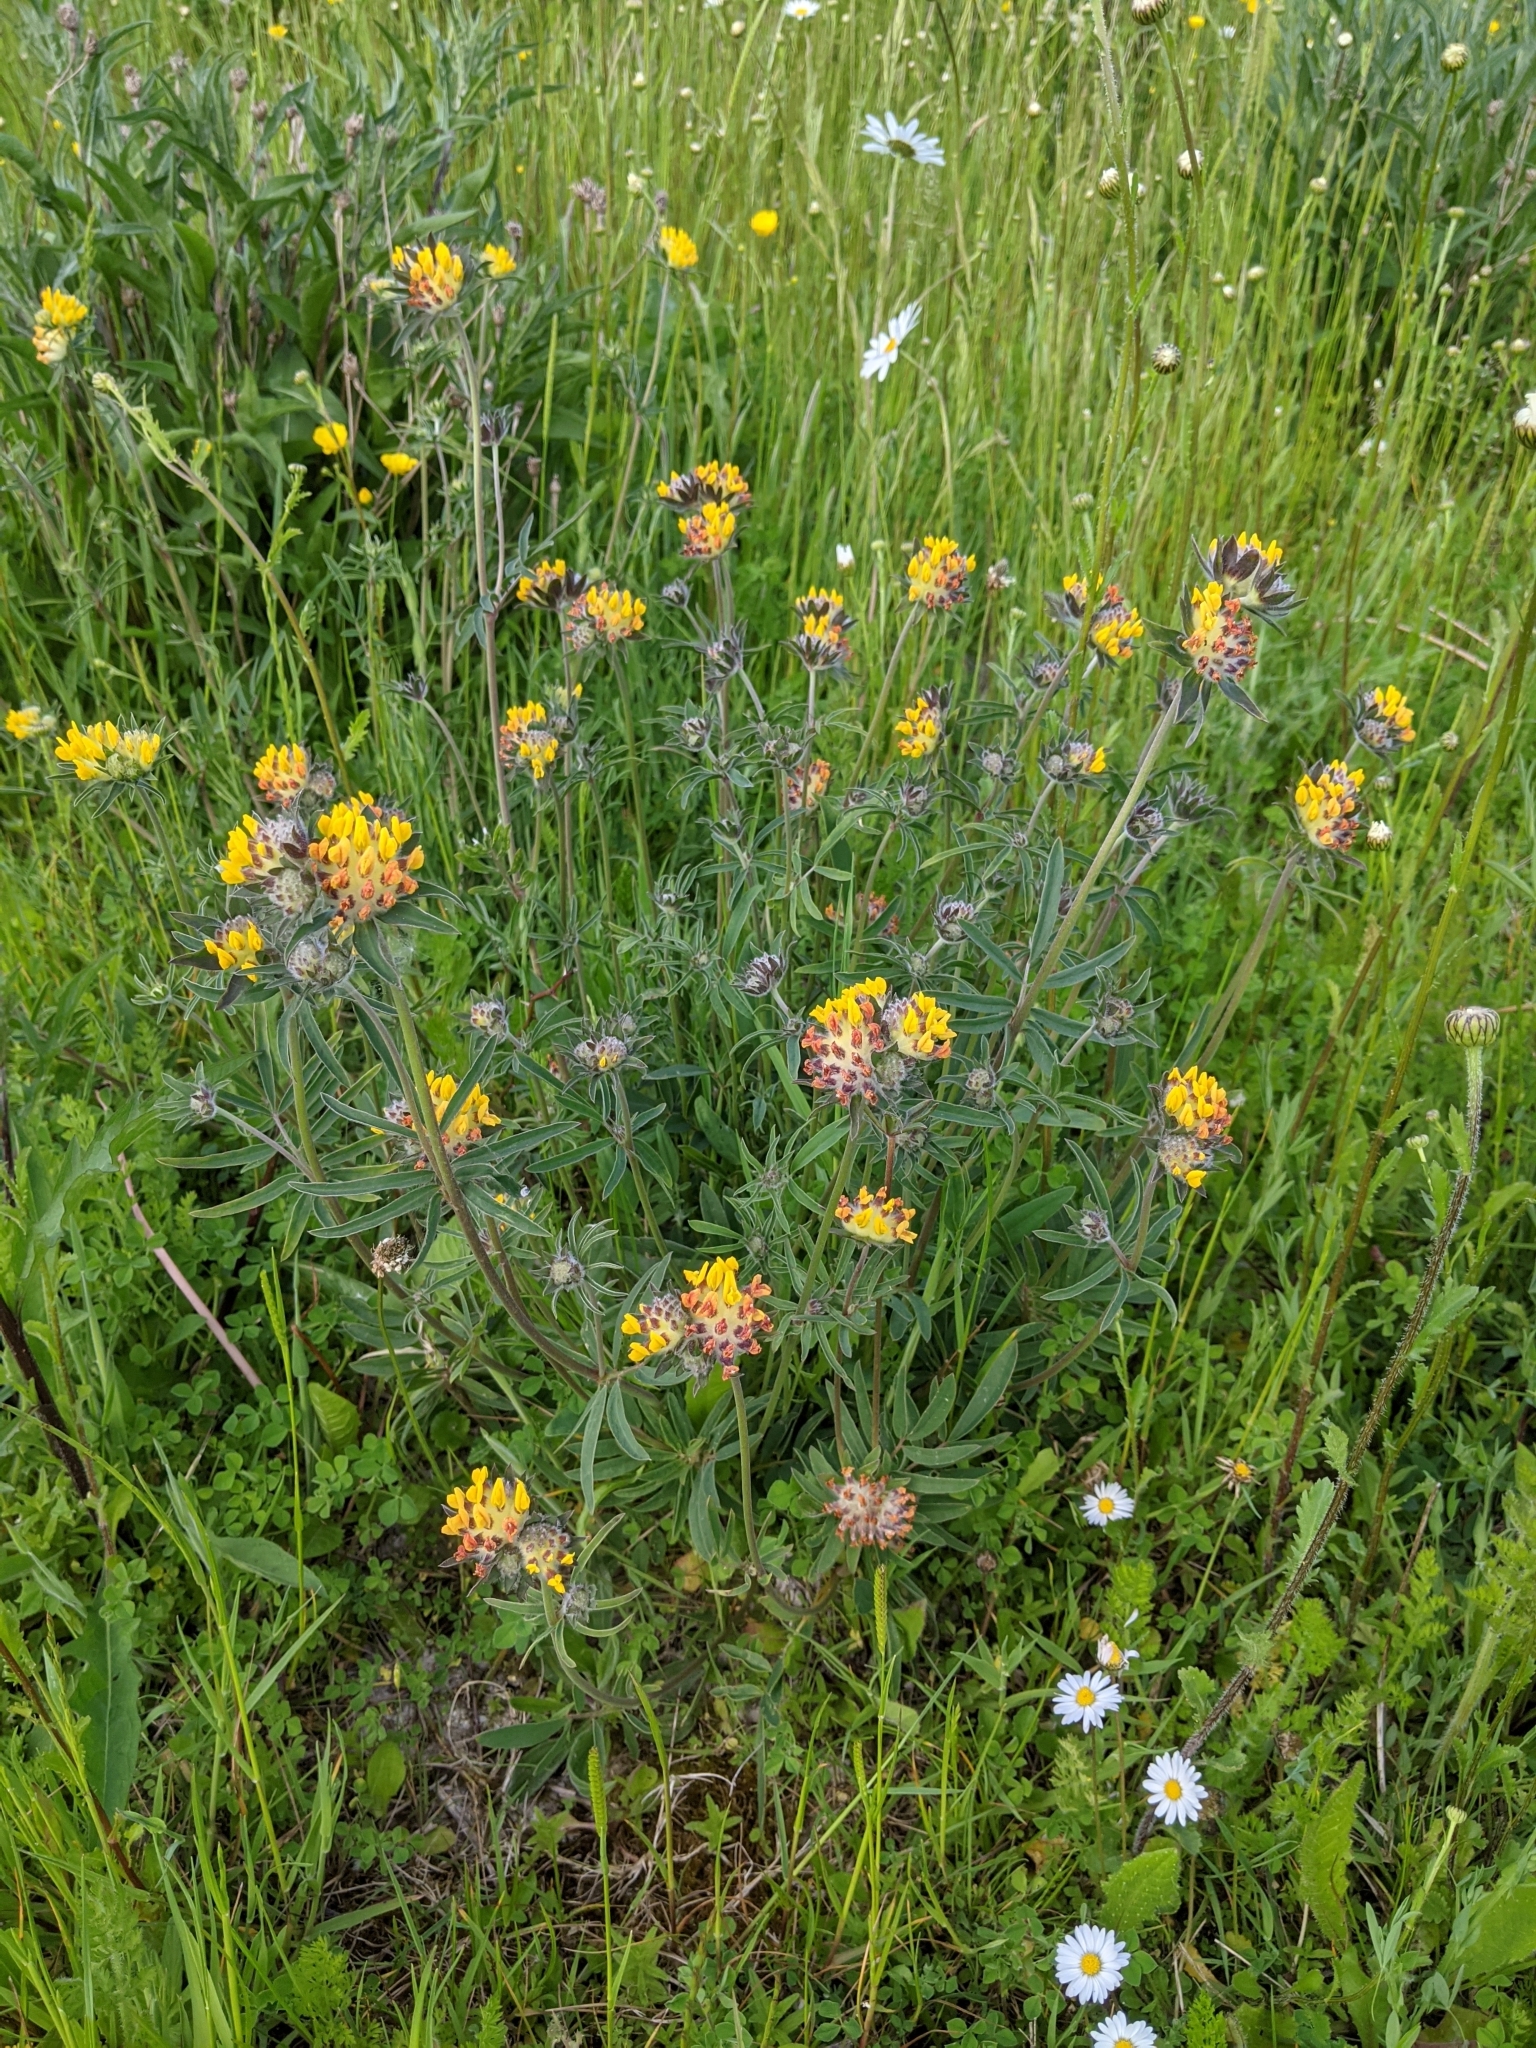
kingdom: Plantae
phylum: Tracheophyta
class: Magnoliopsida
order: Fabales
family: Fabaceae
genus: Anthyllis
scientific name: Anthyllis vulneraria
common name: Kidney vetch
